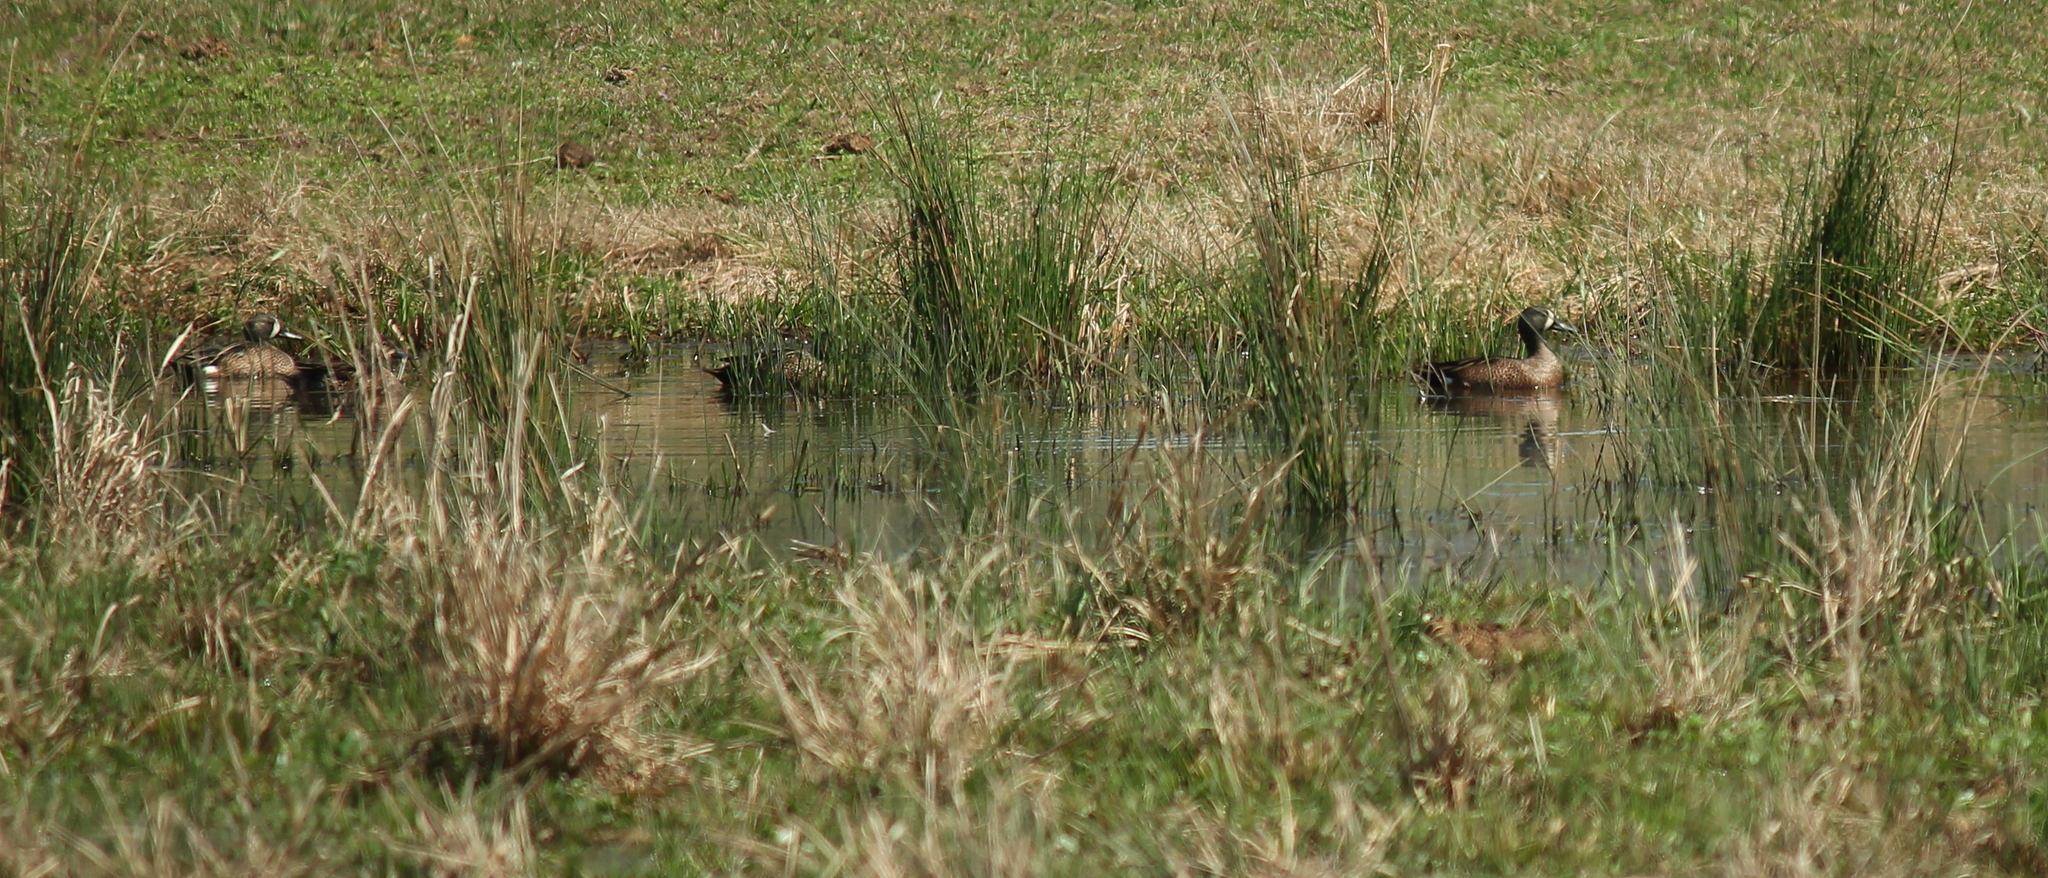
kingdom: Animalia
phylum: Chordata
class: Aves
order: Anseriformes
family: Anatidae
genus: Spatula
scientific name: Spatula discors
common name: Blue-winged teal
